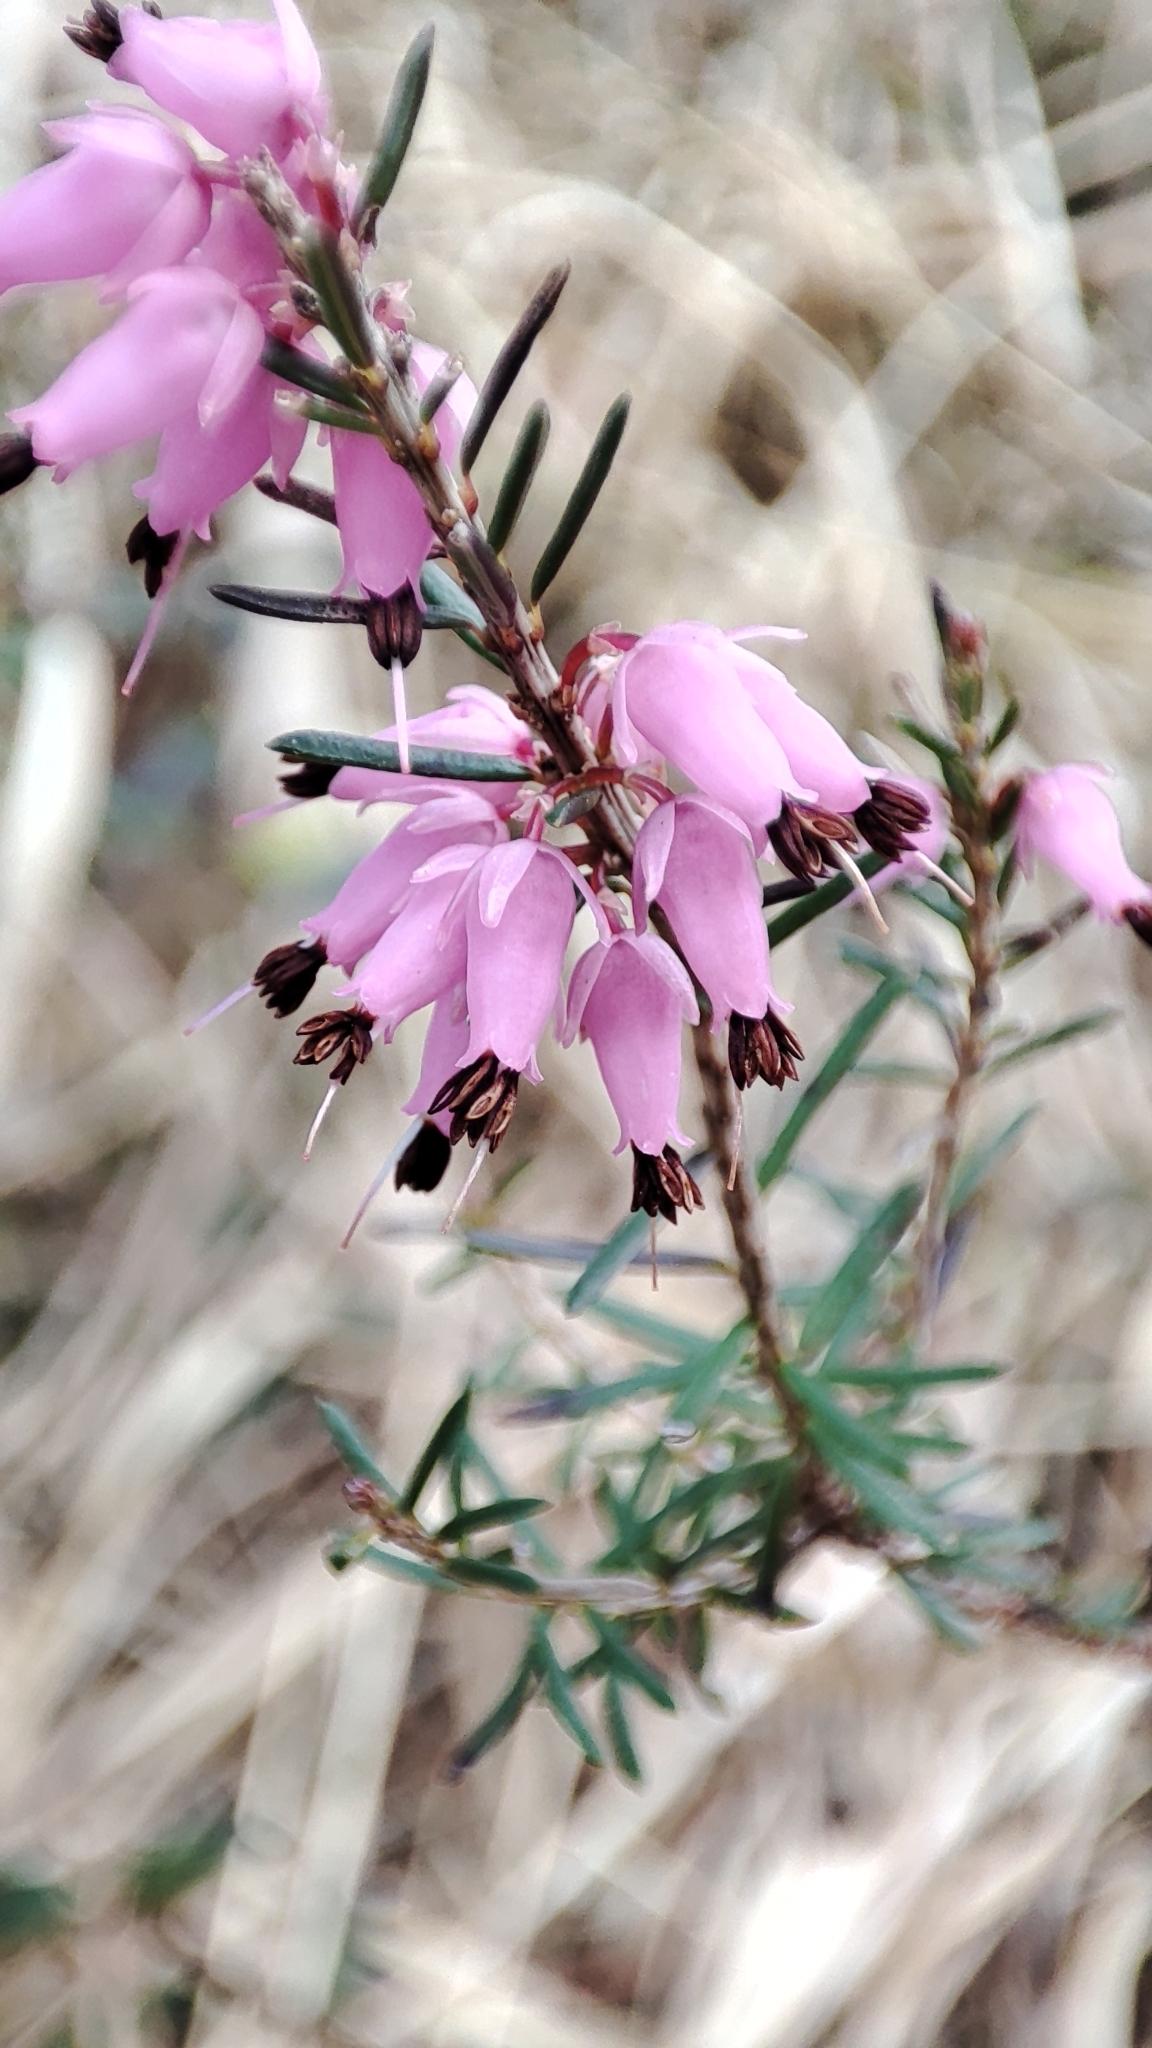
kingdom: Plantae
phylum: Tracheophyta
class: Magnoliopsida
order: Ericales
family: Ericaceae
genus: Erica
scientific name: Erica carnea
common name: Winter heath
